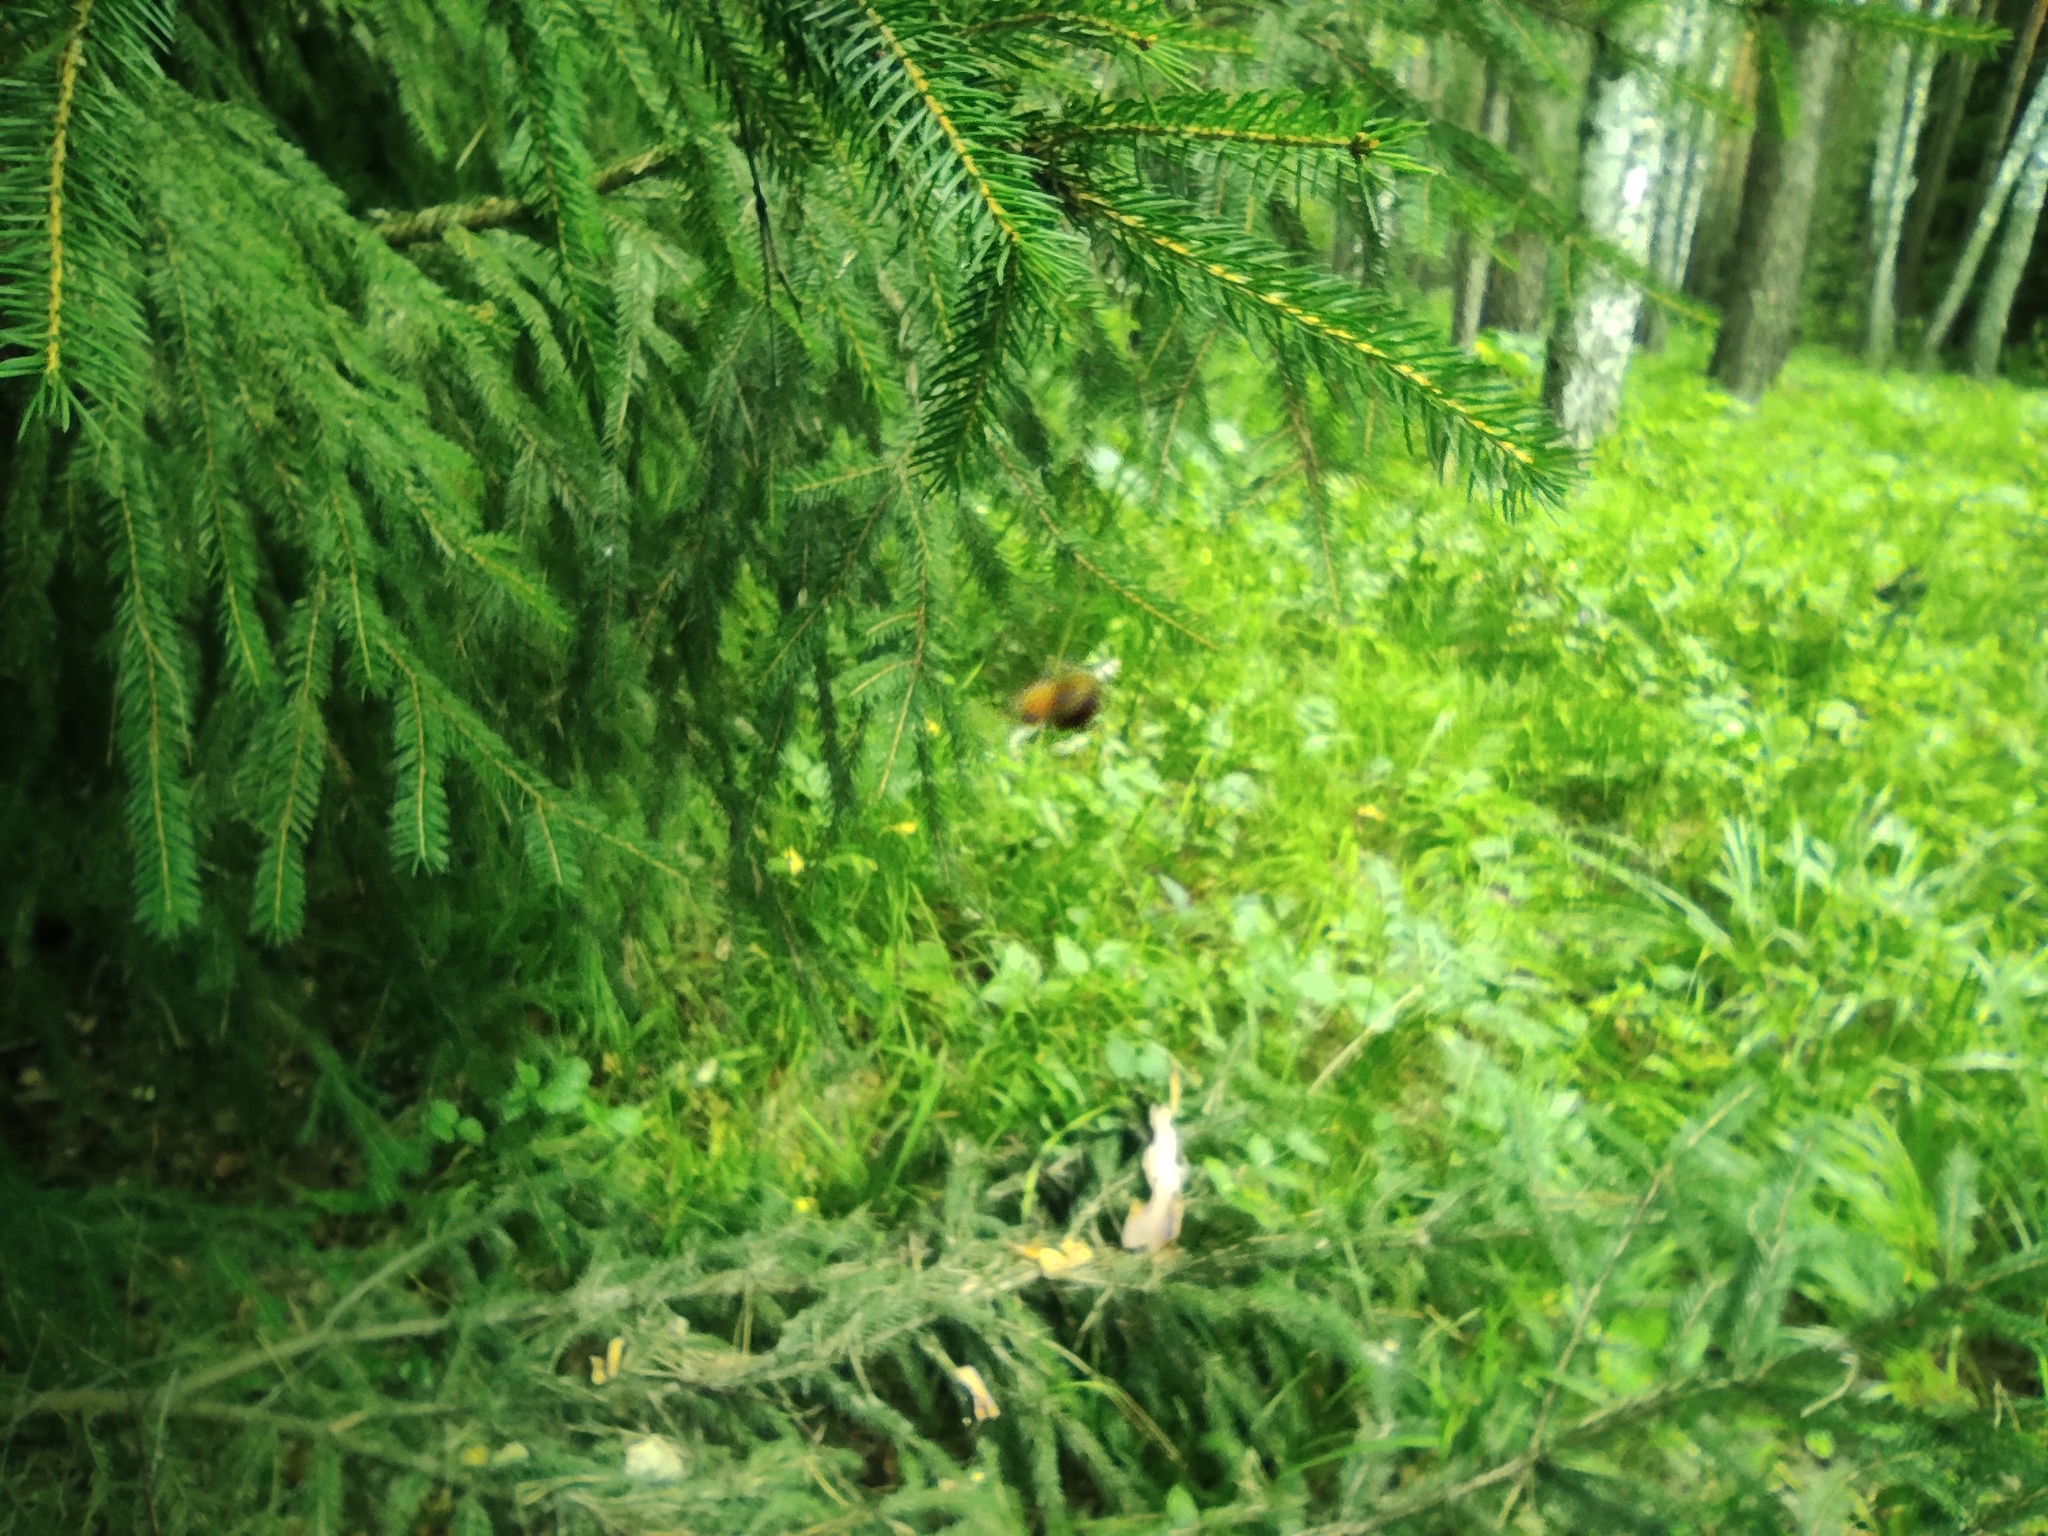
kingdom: Plantae
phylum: Tracheophyta
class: Pinopsida
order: Pinales
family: Pinaceae
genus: Picea
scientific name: Picea obovata
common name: Siberian spruce
